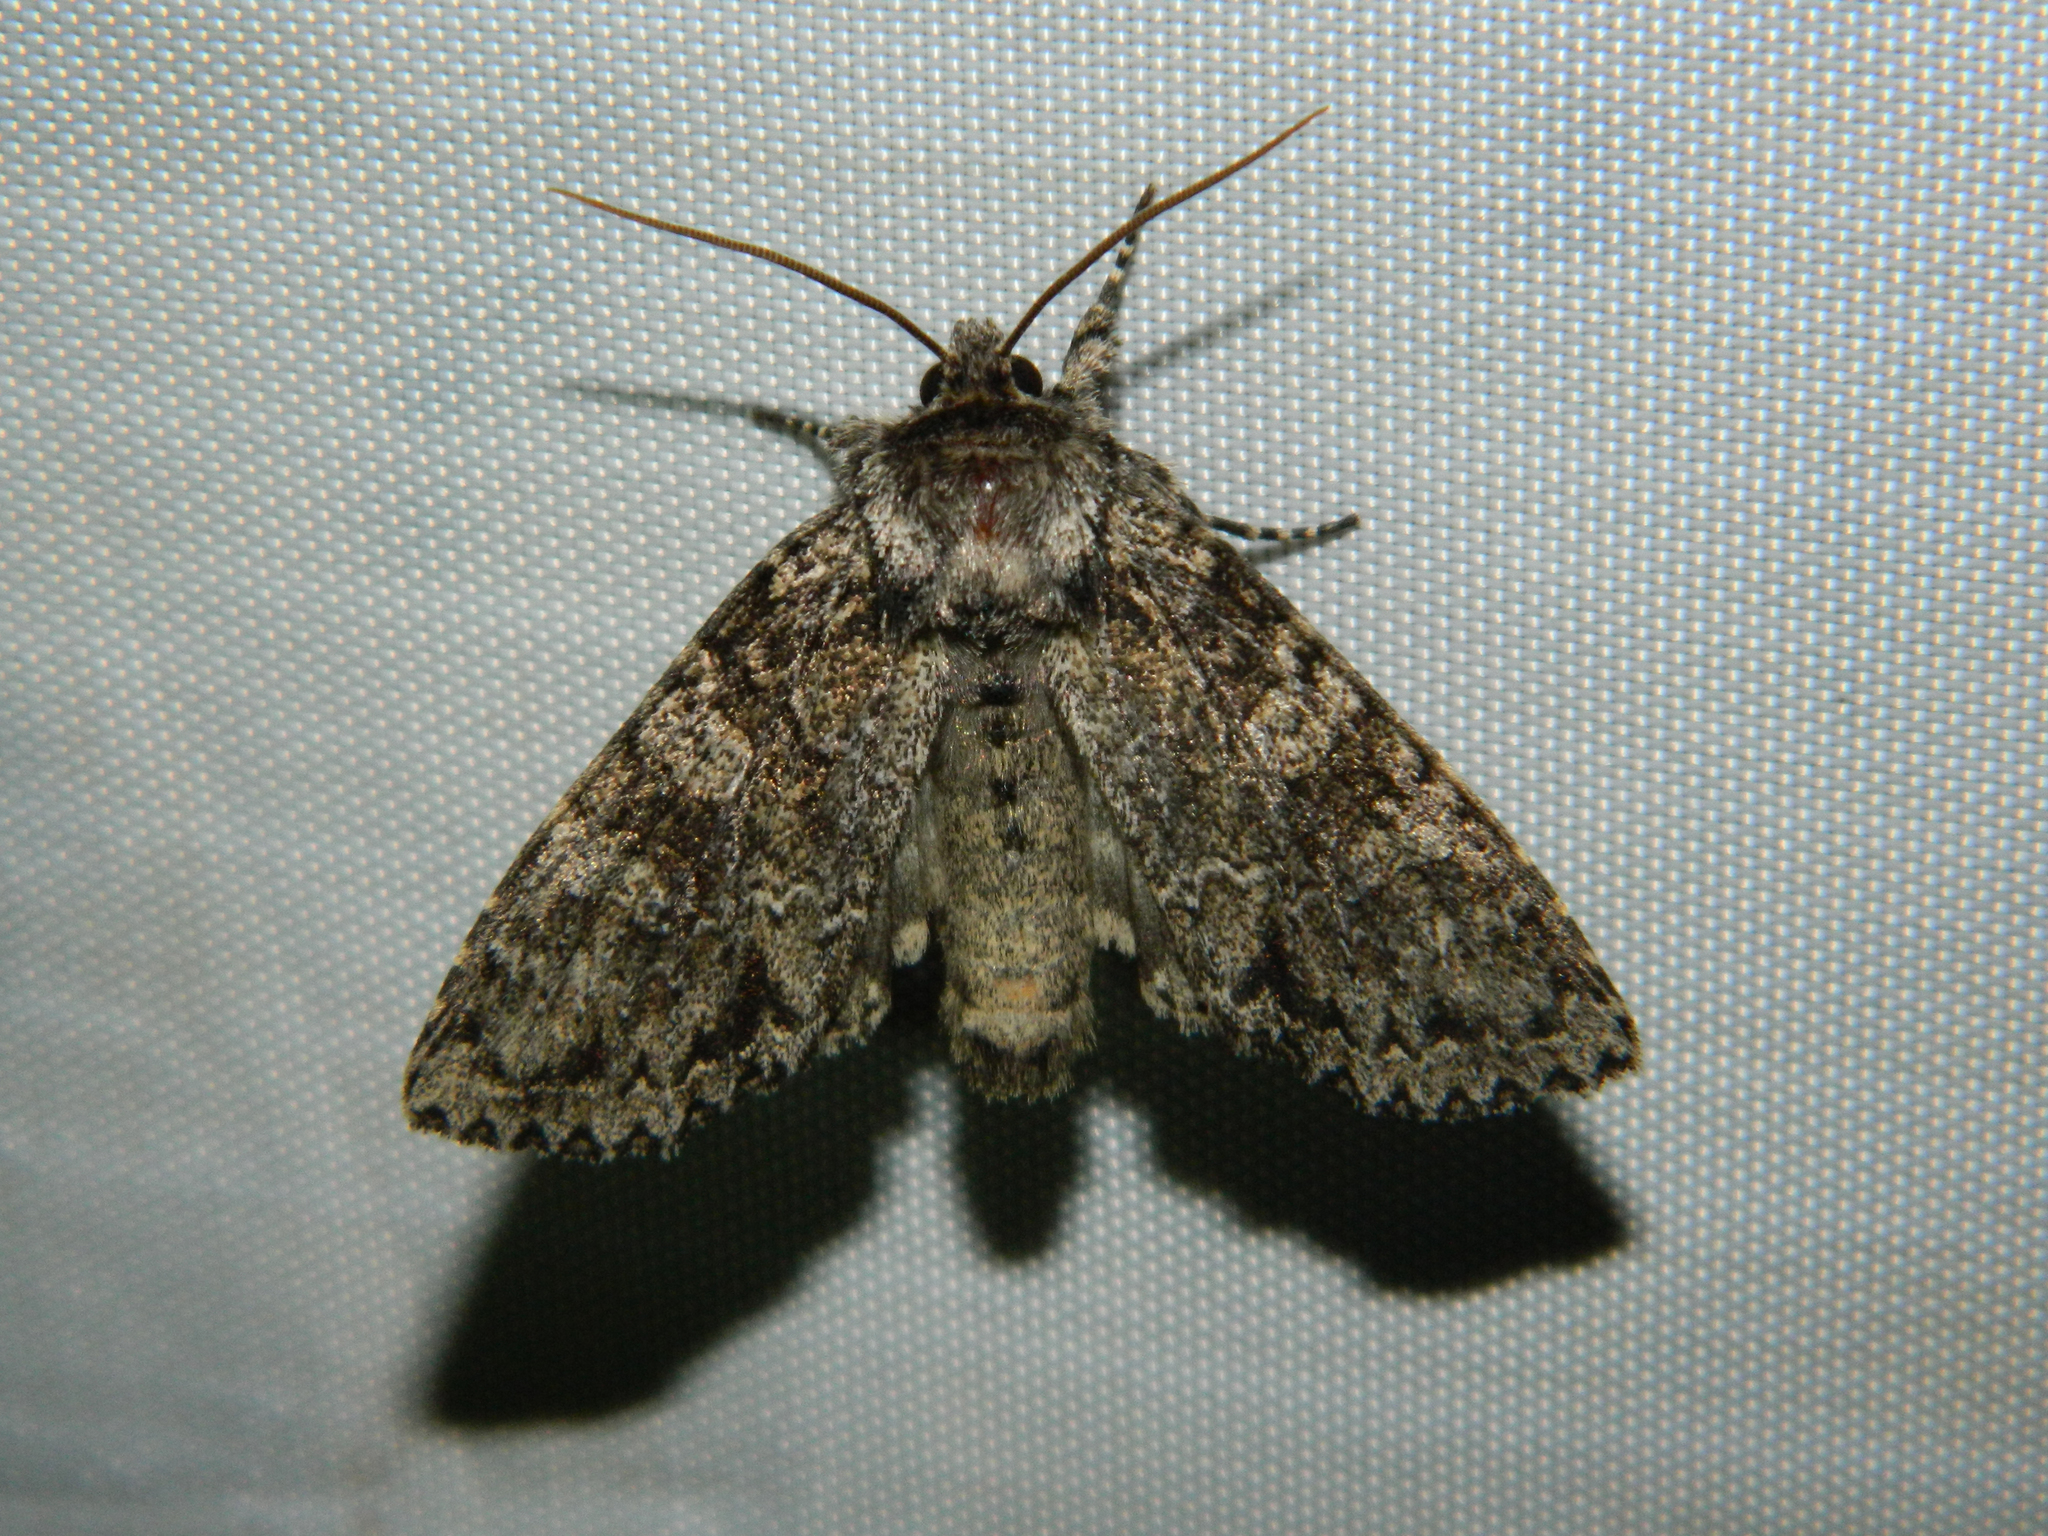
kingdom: Animalia
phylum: Arthropoda
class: Insecta
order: Lepidoptera
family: Noctuidae
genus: Polia
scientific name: Polia imbrifera
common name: Cloudy arches moth
